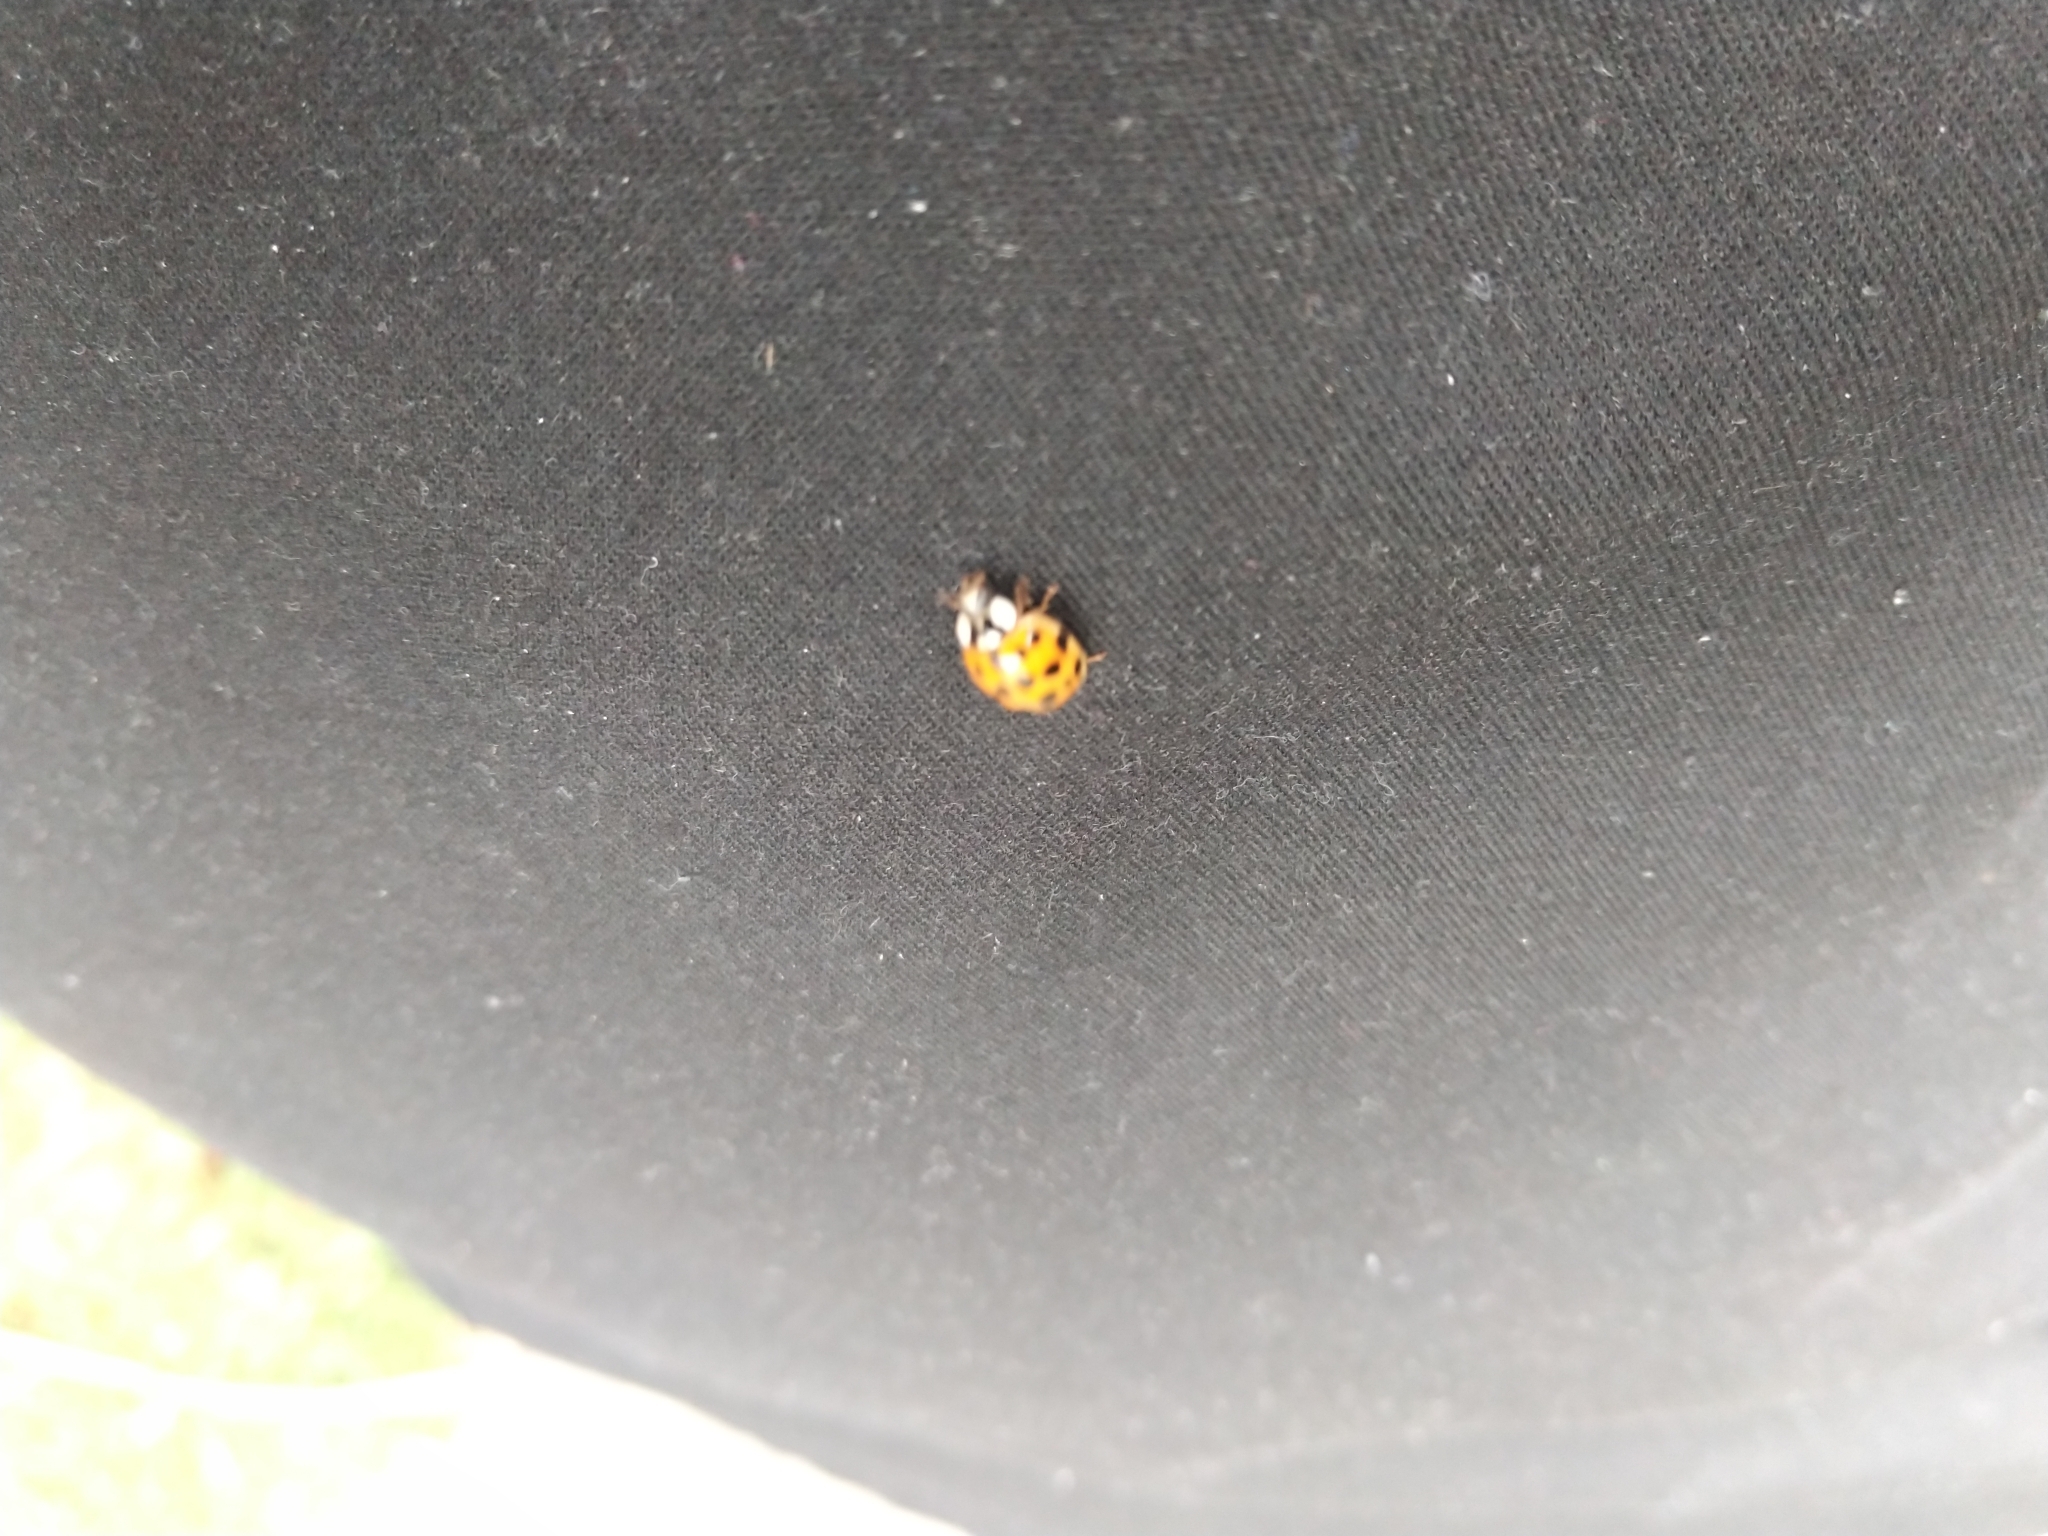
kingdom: Animalia
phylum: Arthropoda
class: Insecta
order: Coleoptera
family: Coccinellidae
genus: Harmonia
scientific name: Harmonia axyridis
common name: Harlequin ladybird
